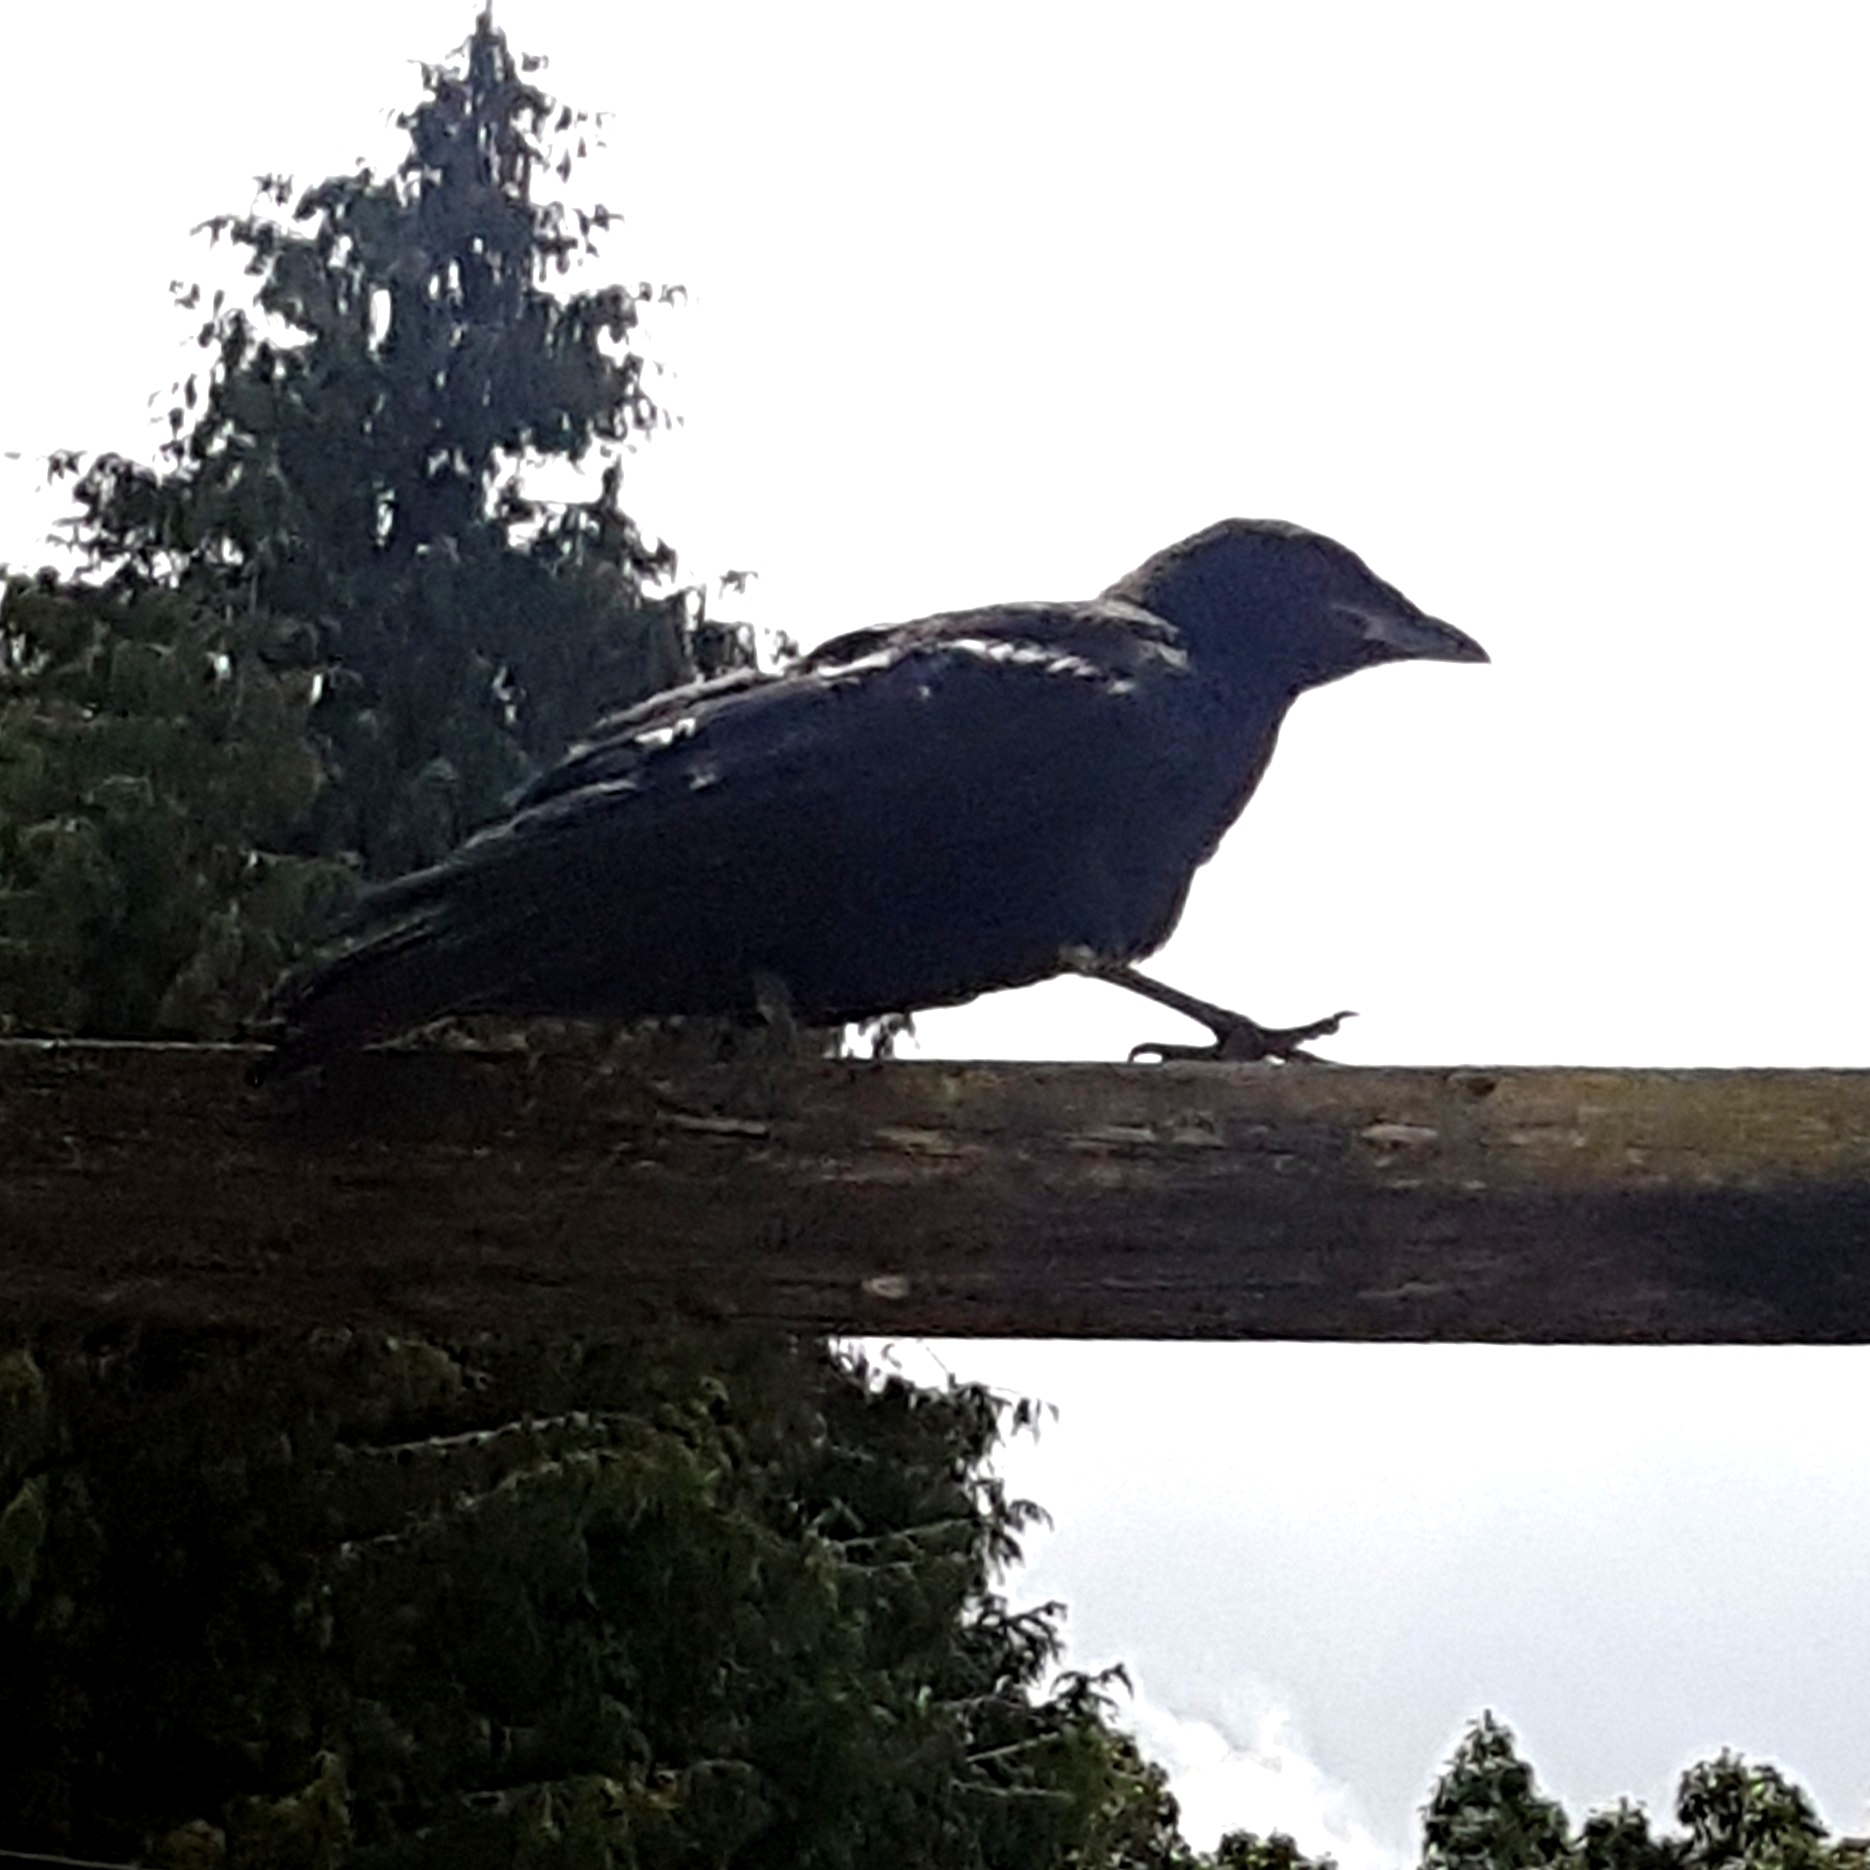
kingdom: Animalia
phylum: Chordata
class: Aves
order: Passeriformes
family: Corvidae
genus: Corvus
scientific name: Corvus brachyrhynchos
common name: American crow
